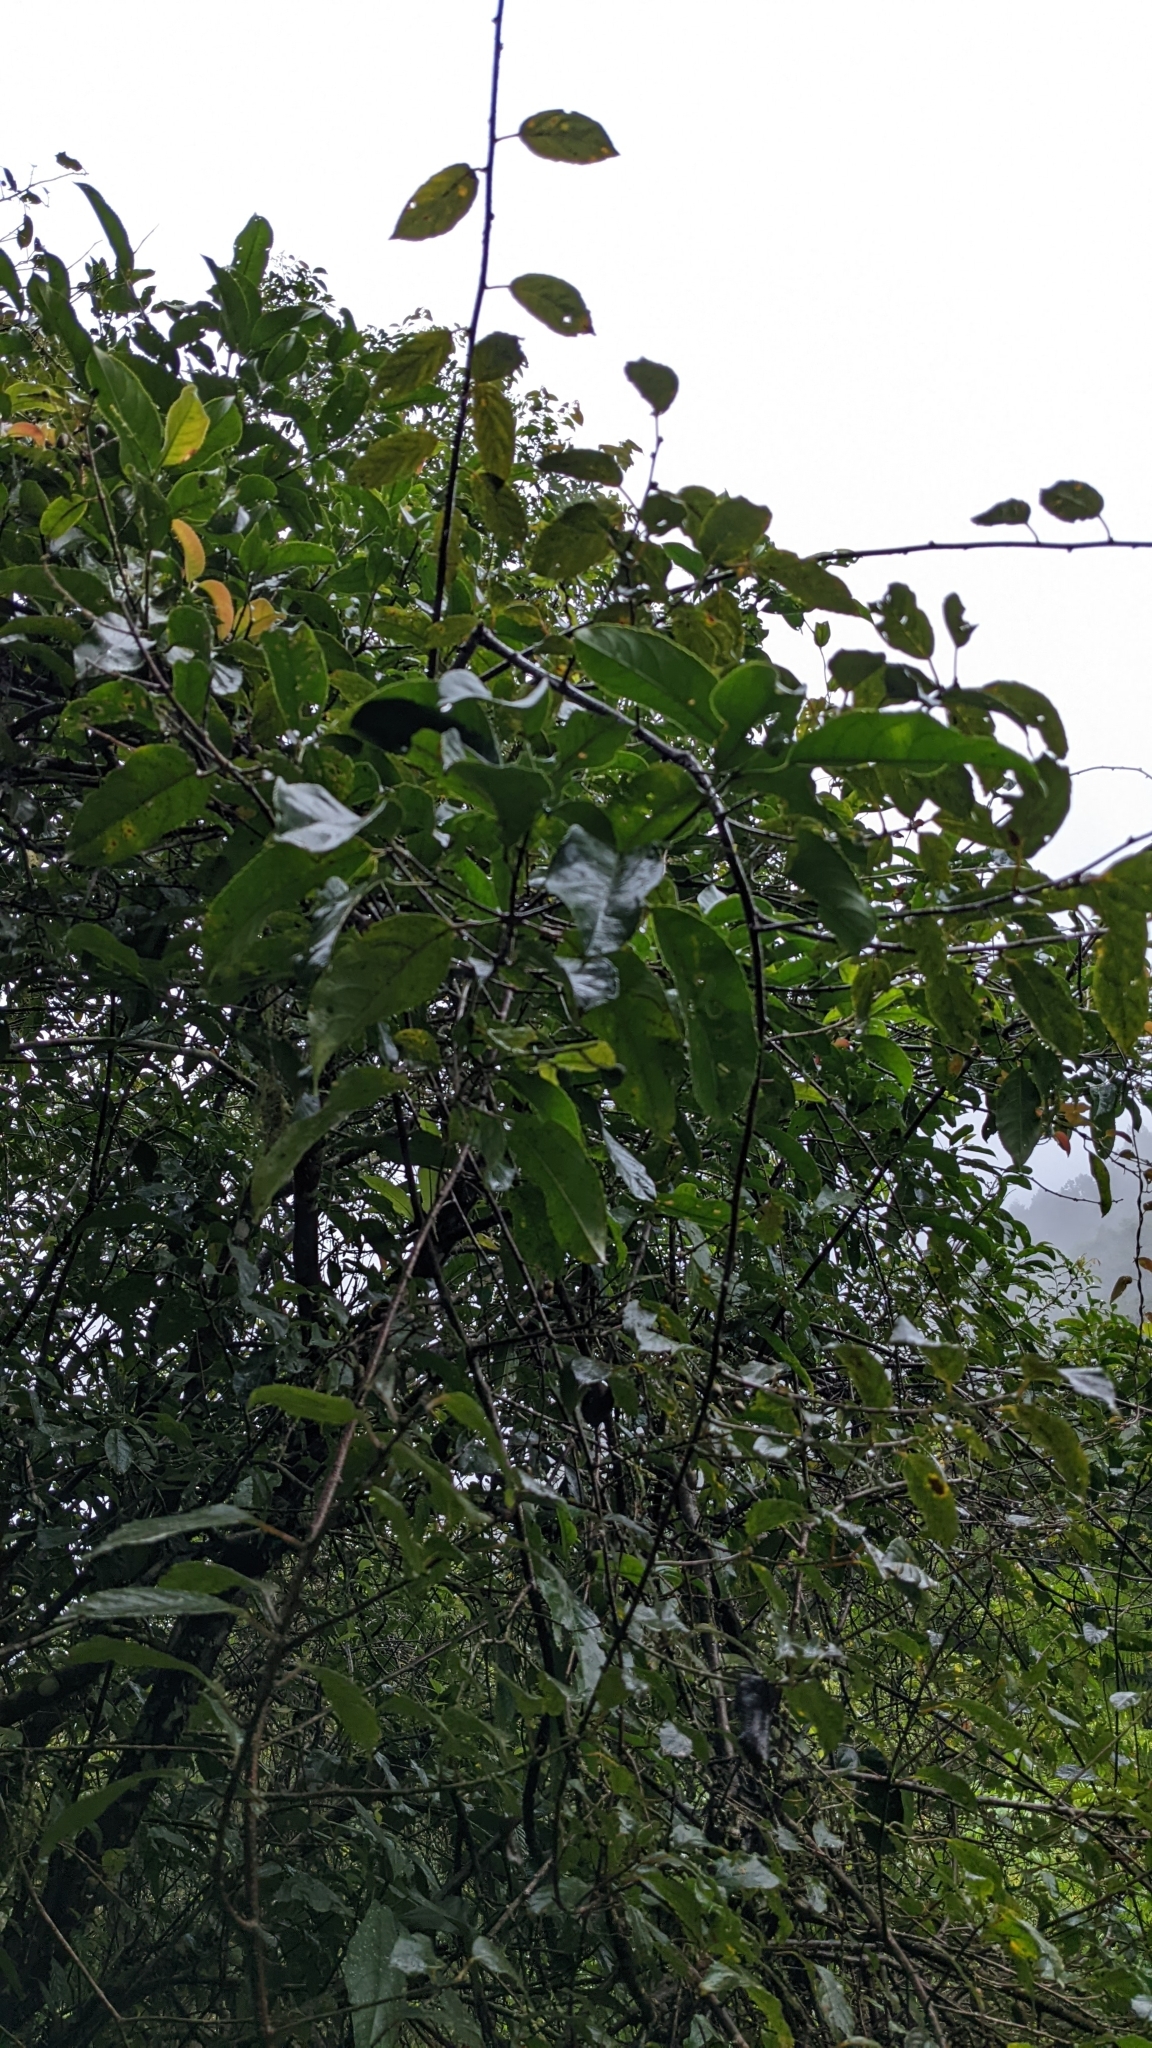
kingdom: Plantae
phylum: Tracheophyta
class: Magnoliopsida
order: Crossosomatales
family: Staphyleaceae
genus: Turpinia
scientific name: Turpinia formosana
